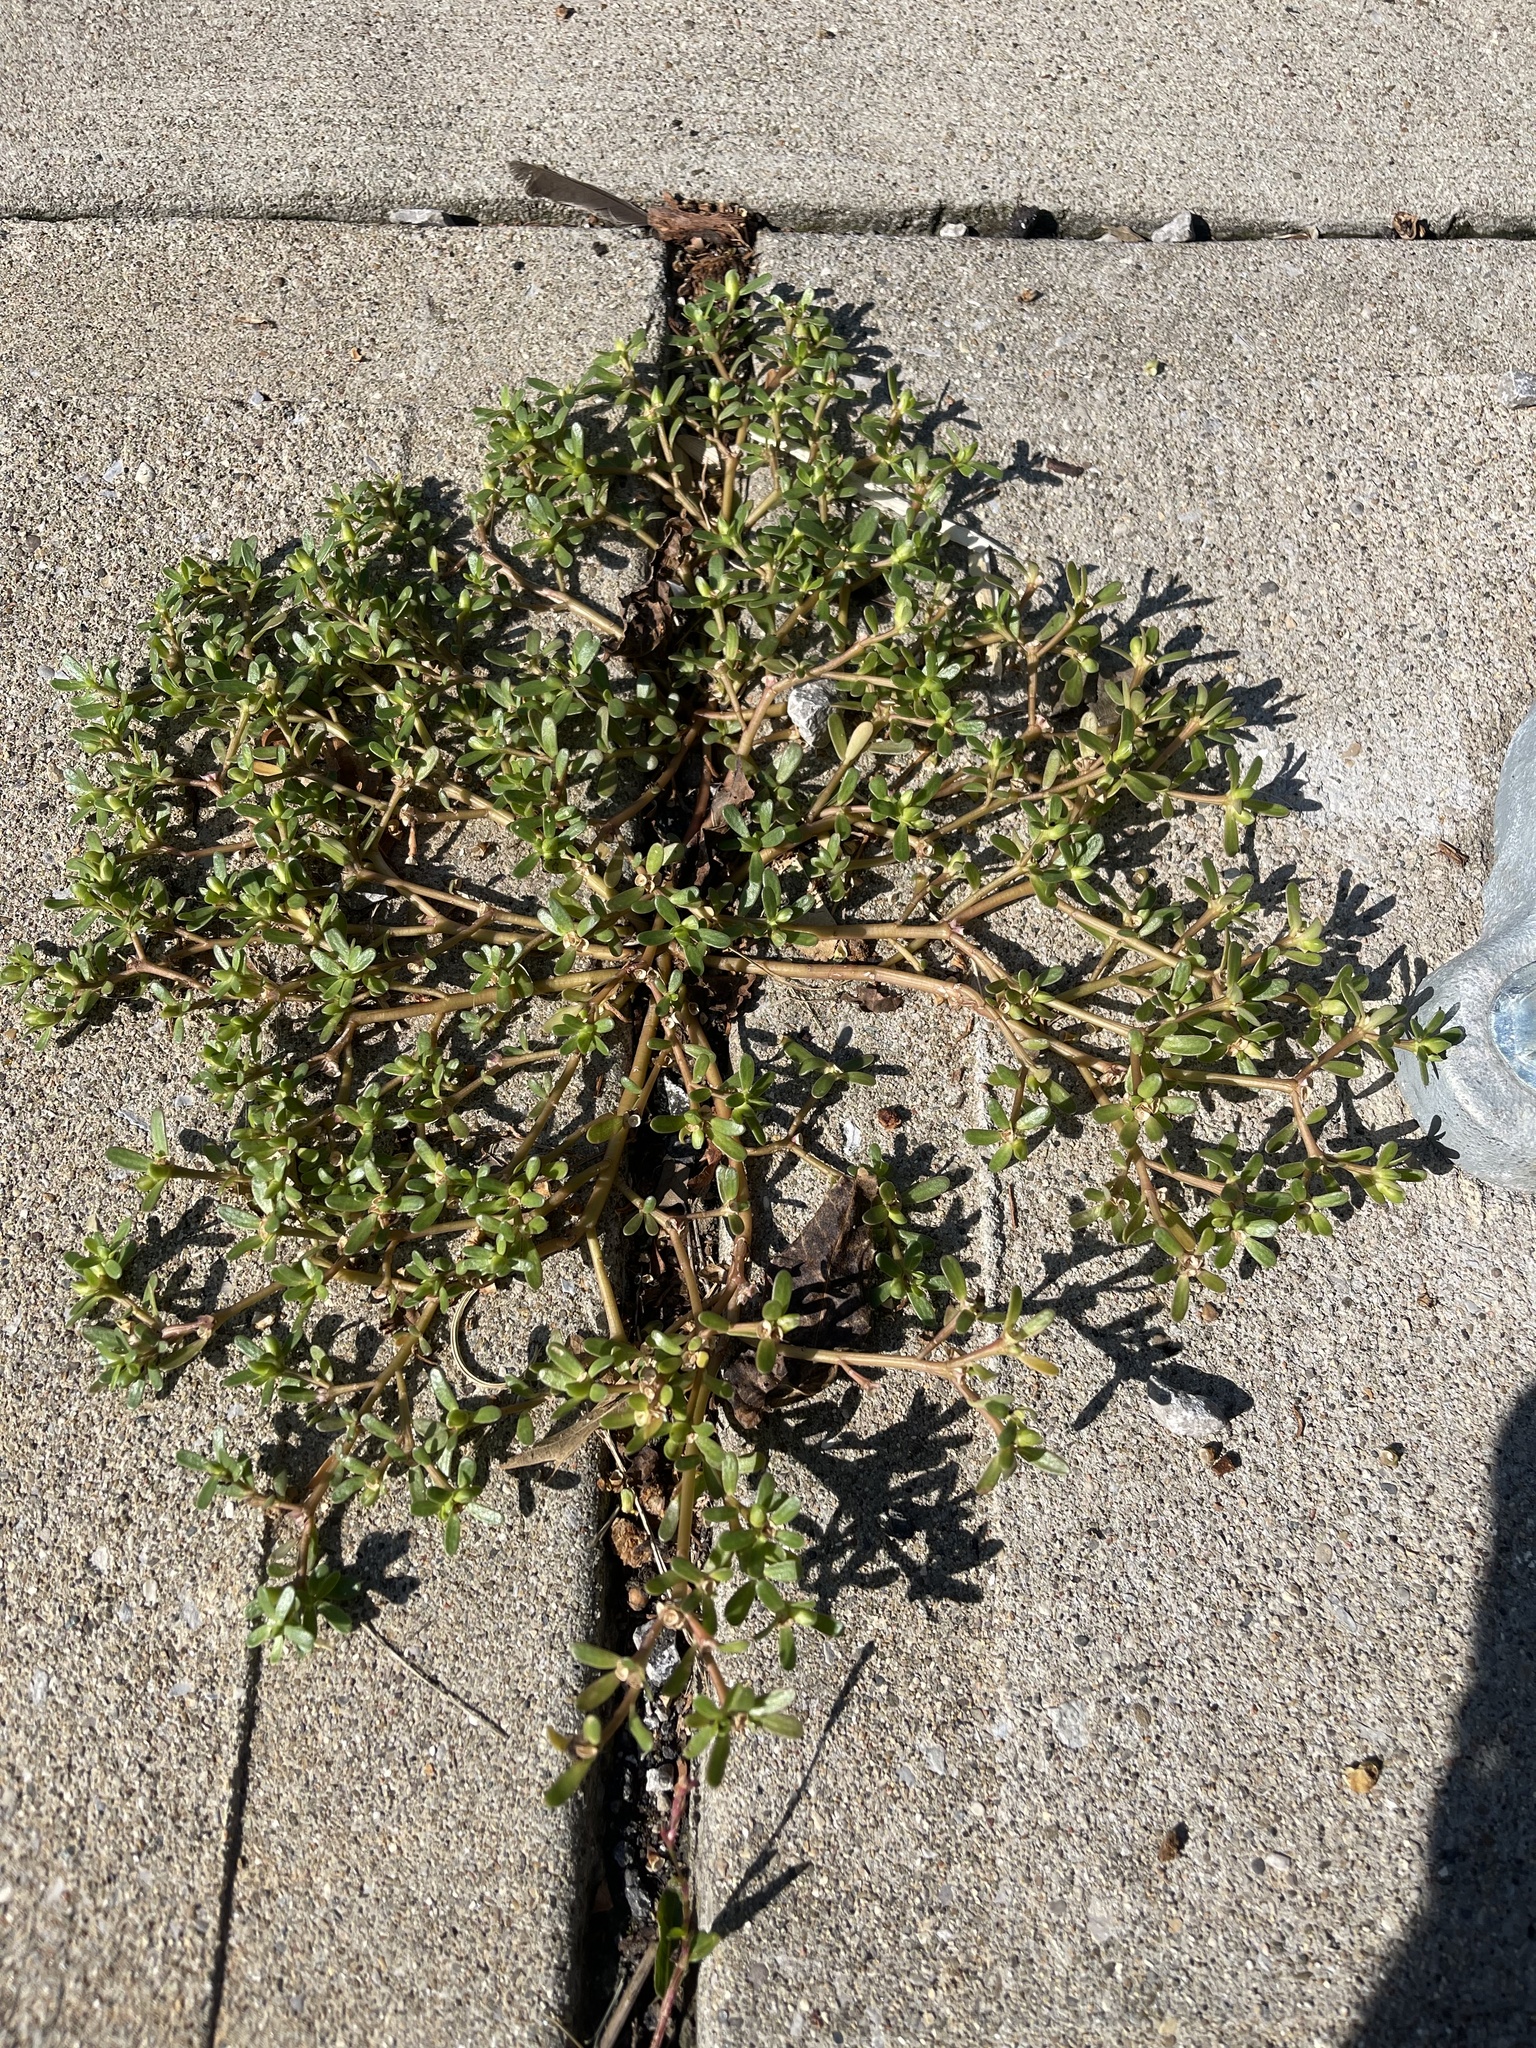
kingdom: Plantae
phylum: Tracheophyta
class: Magnoliopsida
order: Caryophyllales
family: Portulacaceae
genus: Portulaca
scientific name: Portulaca oleracea
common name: Common purslane
